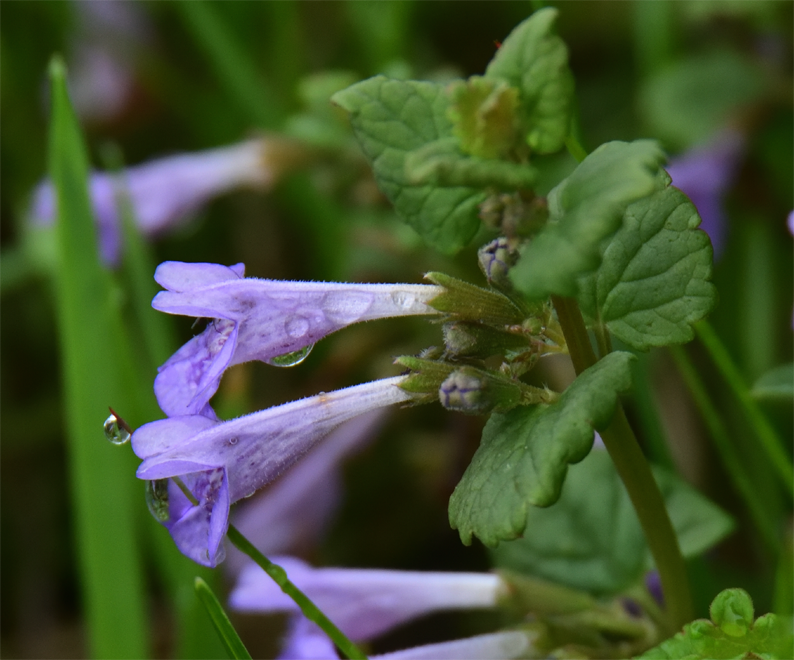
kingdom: Plantae
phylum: Tracheophyta
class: Magnoliopsida
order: Lamiales
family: Lamiaceae
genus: Glechoma
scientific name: Glechoma hederacea
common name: Ground ivy
